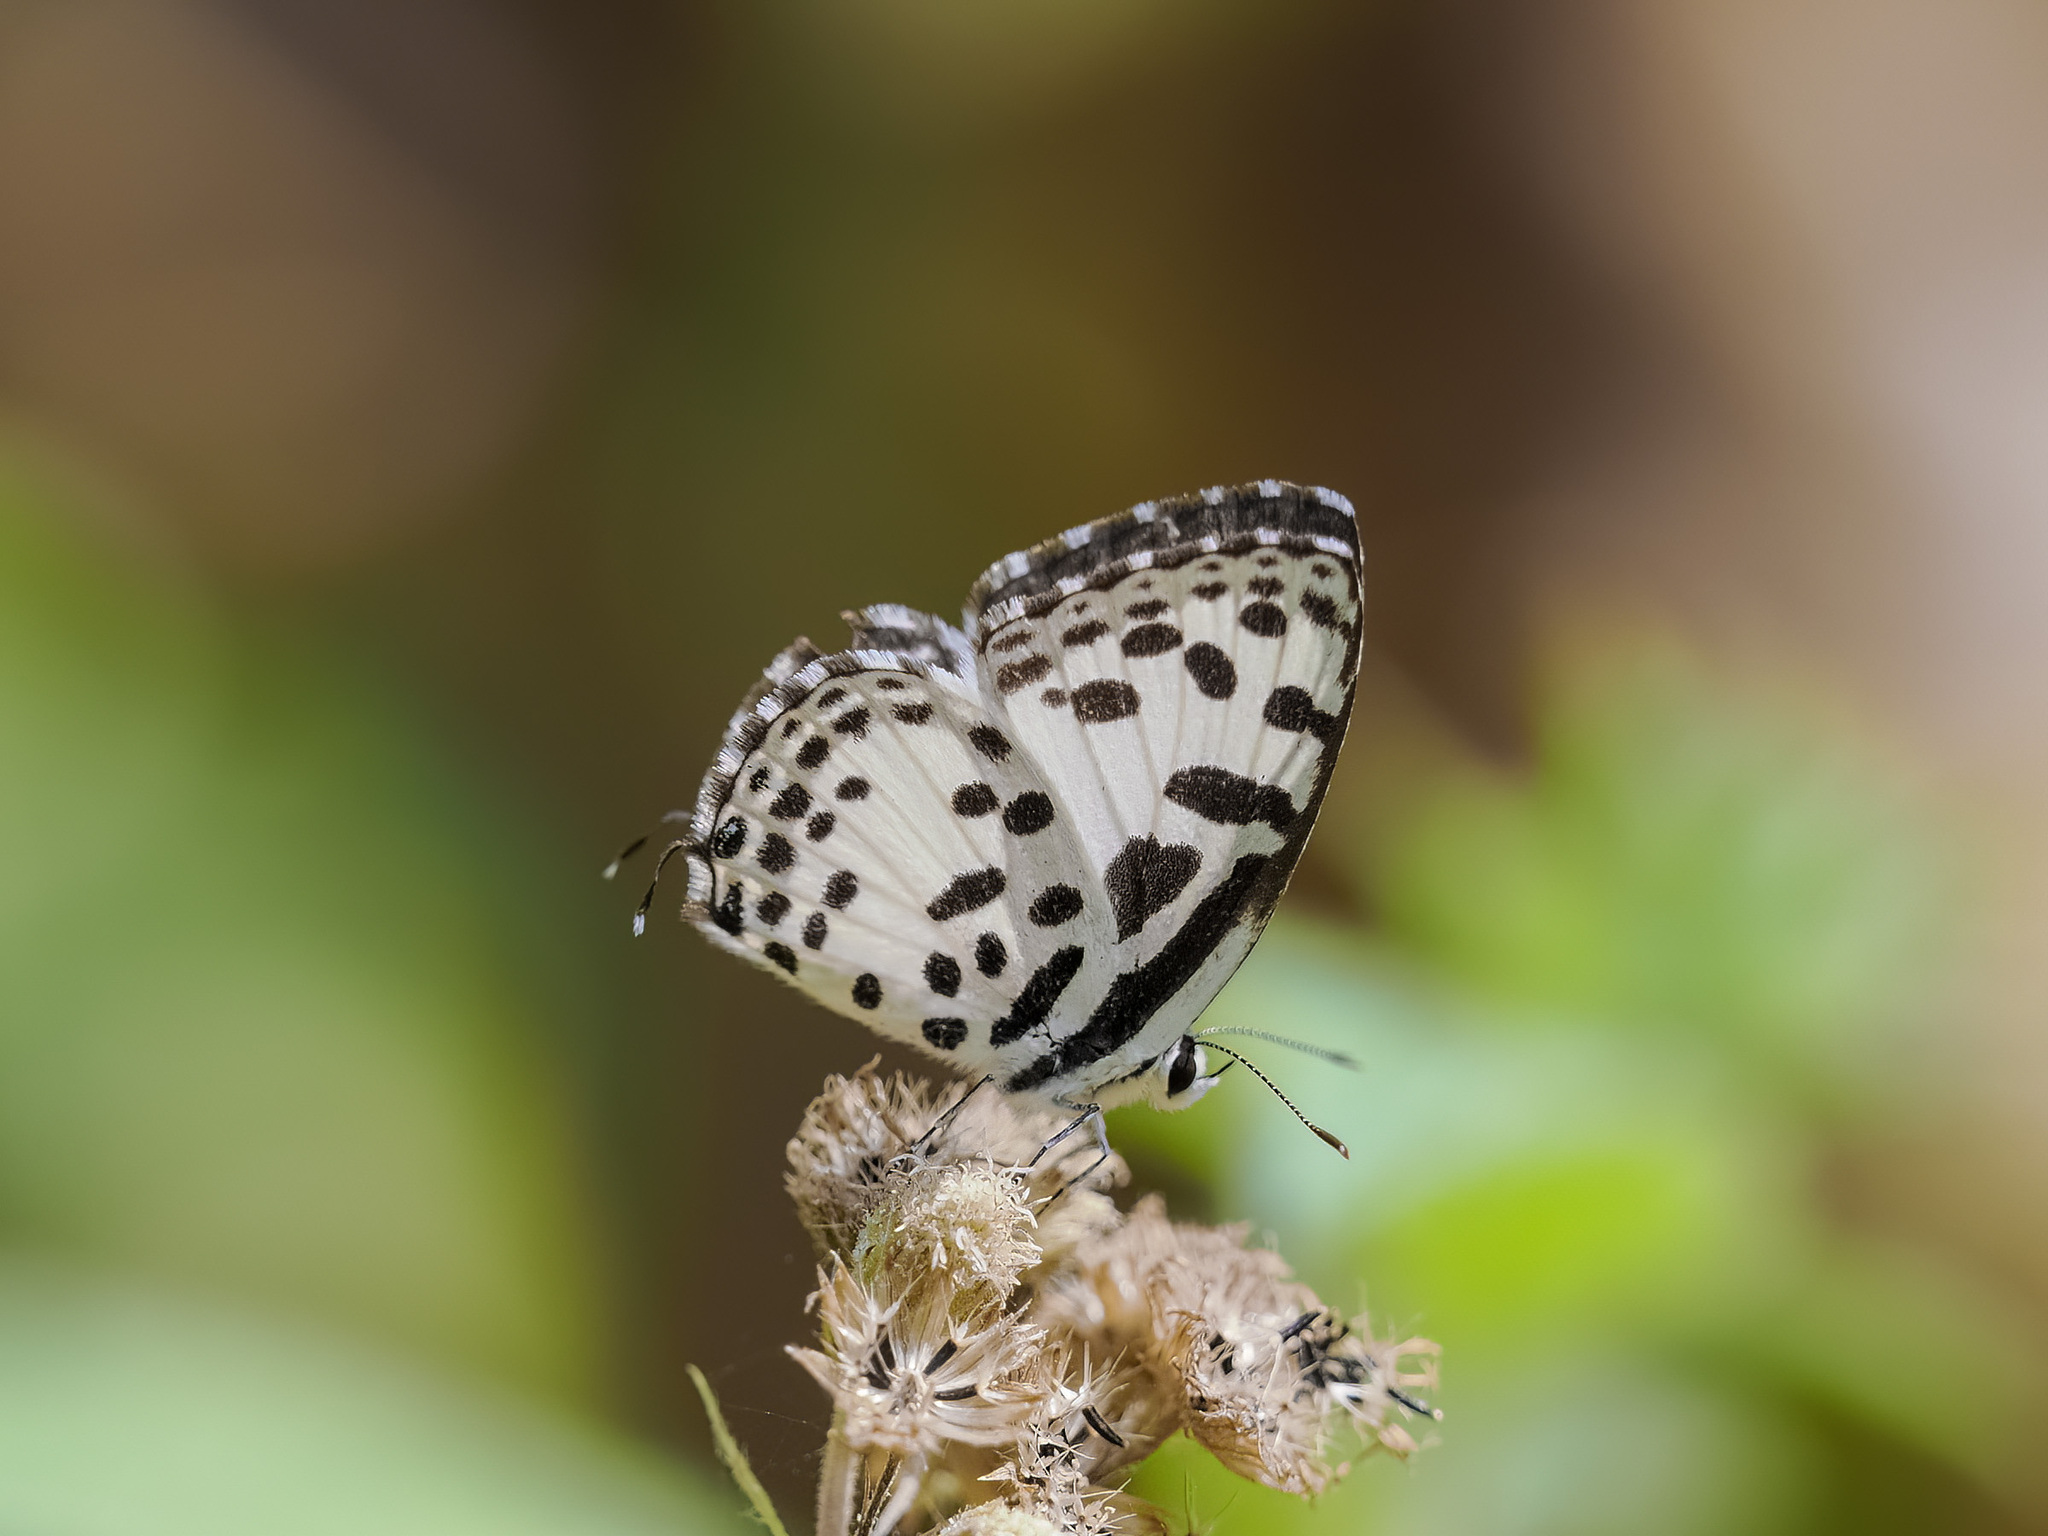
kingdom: Animalia
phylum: Arthropoda
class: Insecta
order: Lepidoptera
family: Lycaenidae
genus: Castalius
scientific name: Castalius rosimon
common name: Common pierrot
